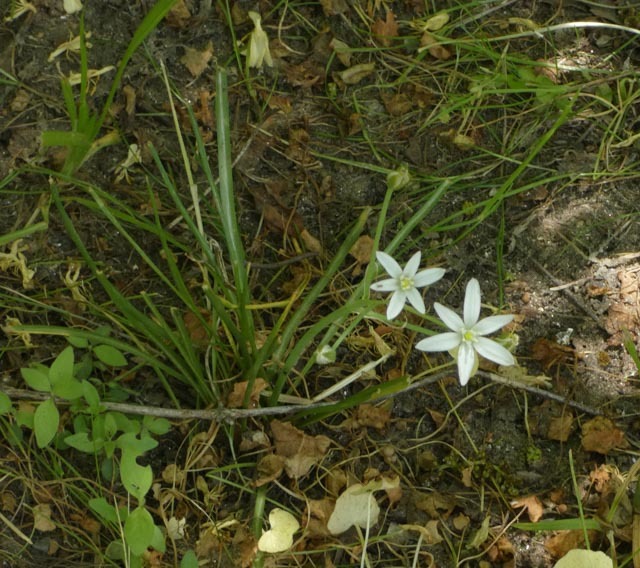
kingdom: Plantae
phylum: Tracheophyta
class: Liliopsida
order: Asparagales
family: Asparagaceae
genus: Ornithogalum
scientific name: Ornithogalum umbellatum
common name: Garden star-of-bethlehem
